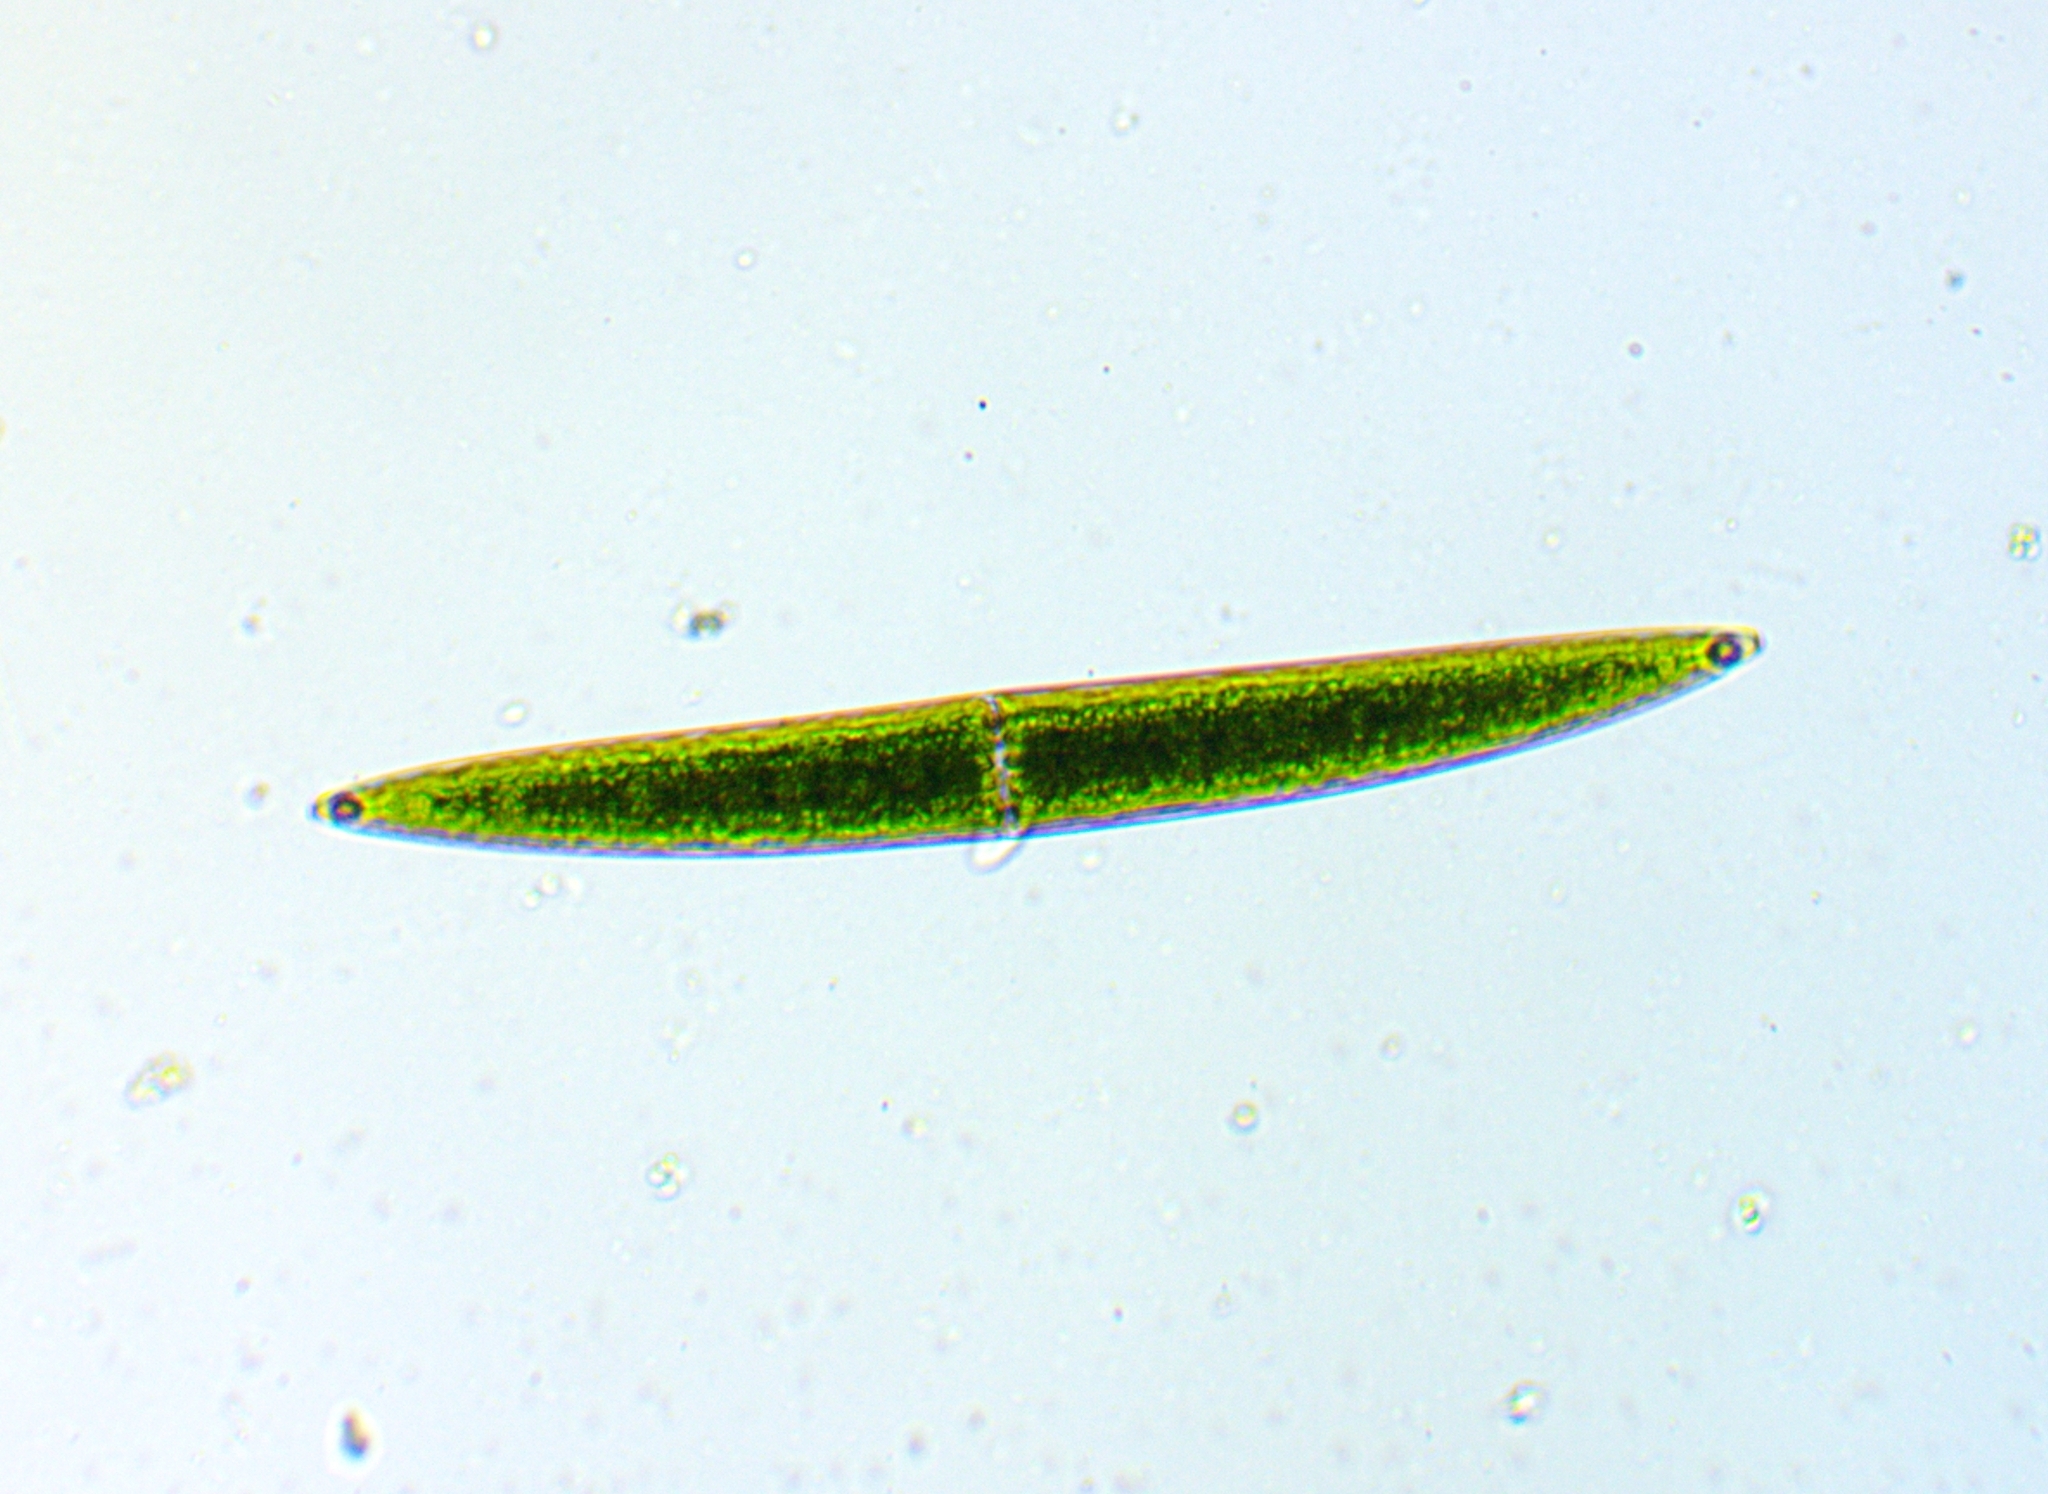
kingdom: Plantae
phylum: Charophyta
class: Zygnematophyceae
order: Zygnematales
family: Closteriaceae
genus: Closterium
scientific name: Closterium acerosum
